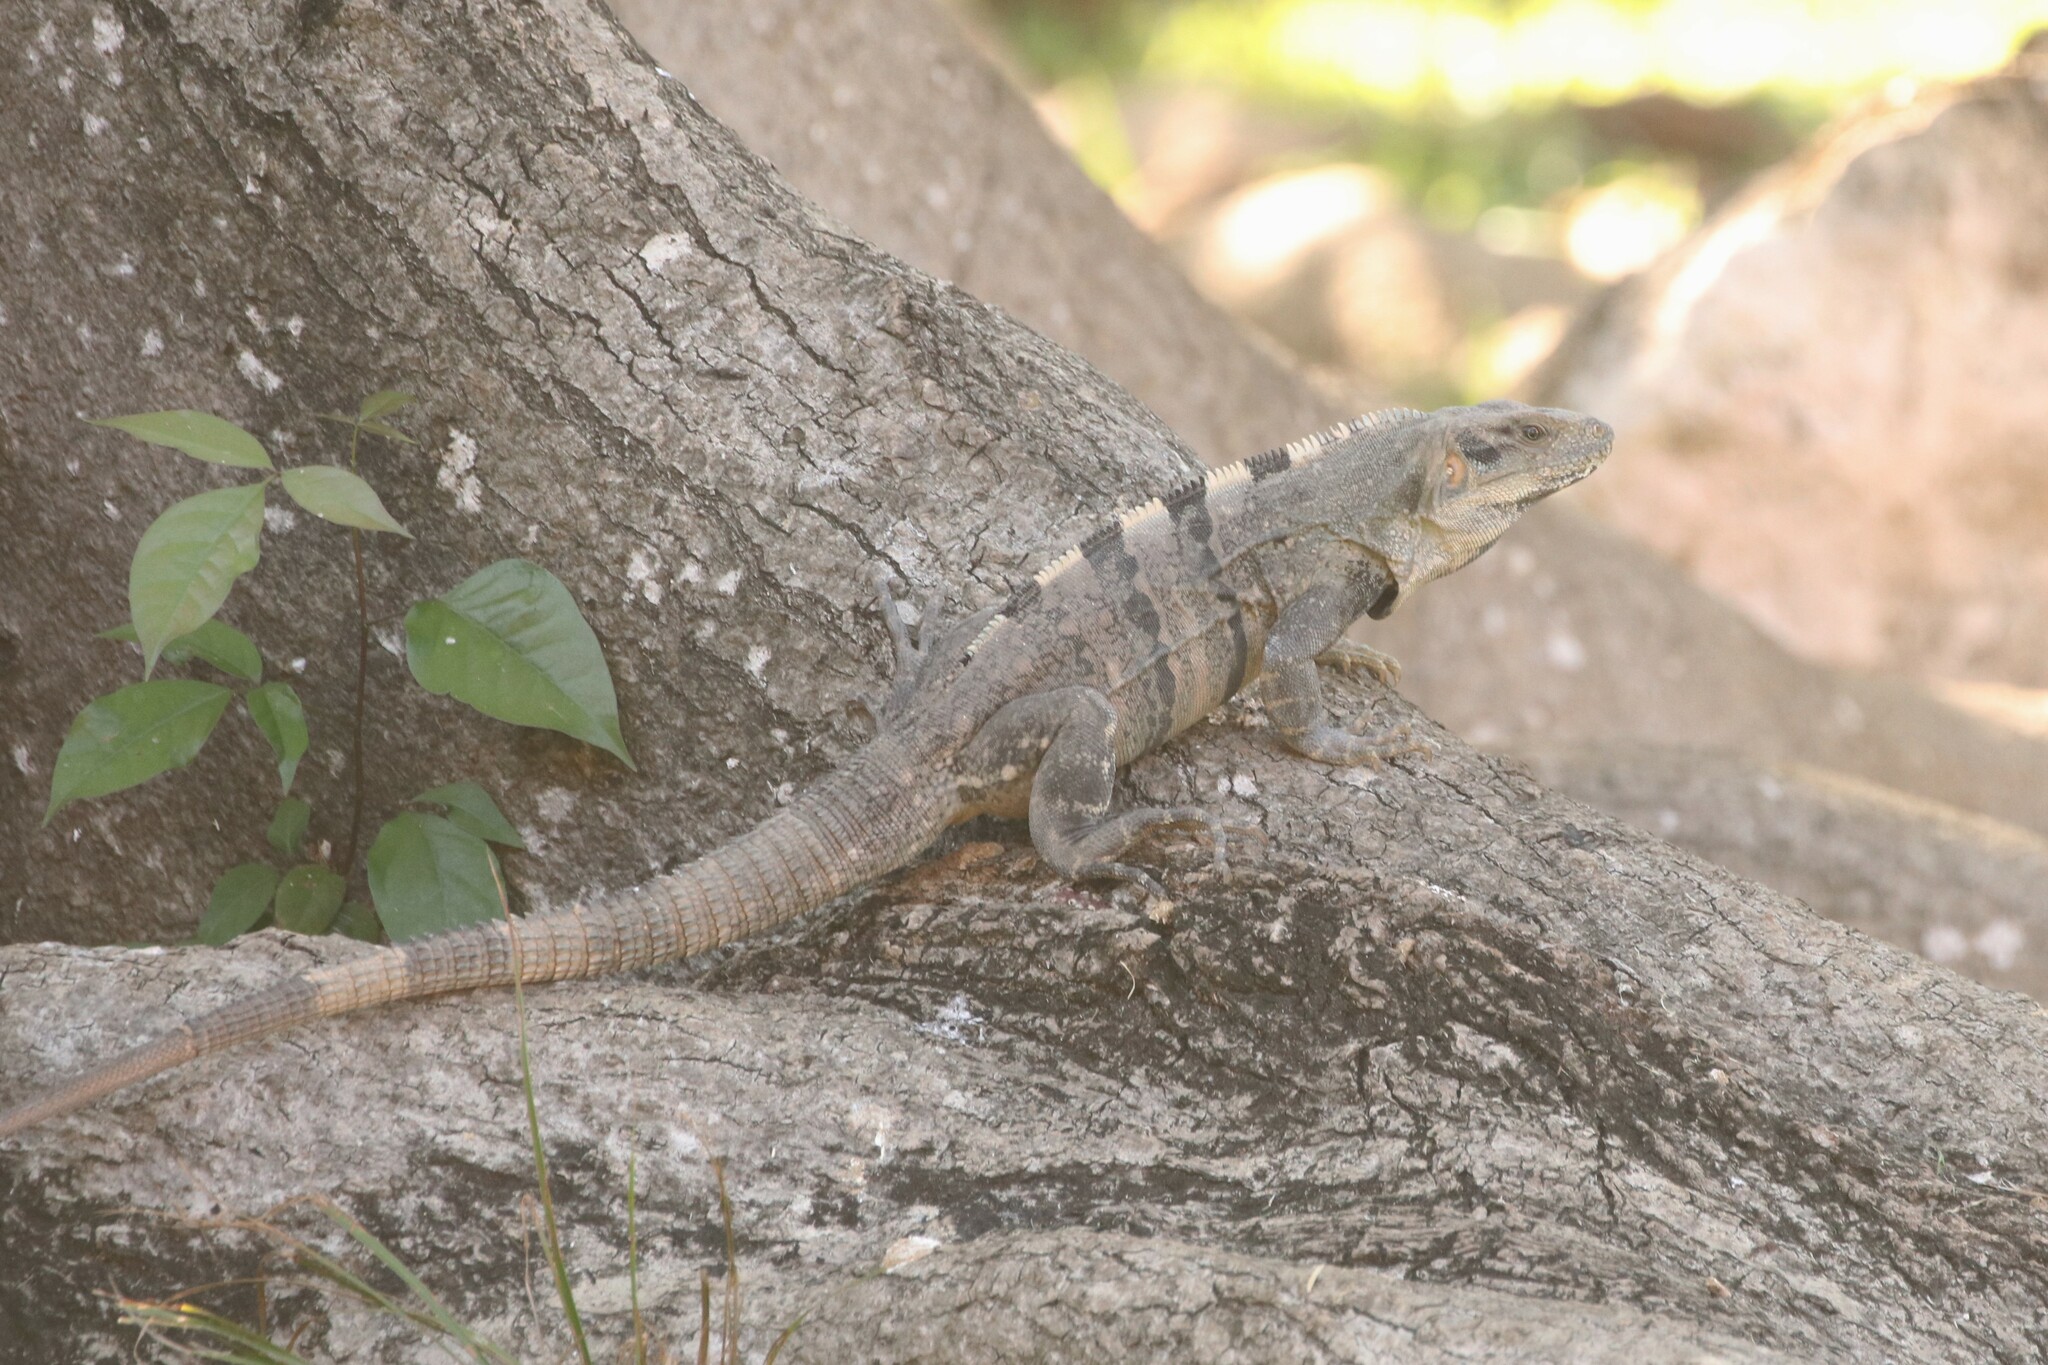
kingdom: Animalia
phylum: Chordata
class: Squamata
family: Iguanidae
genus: Ctenosaura
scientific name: Ctenosaura similis
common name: Black spiny-tailed iguana
